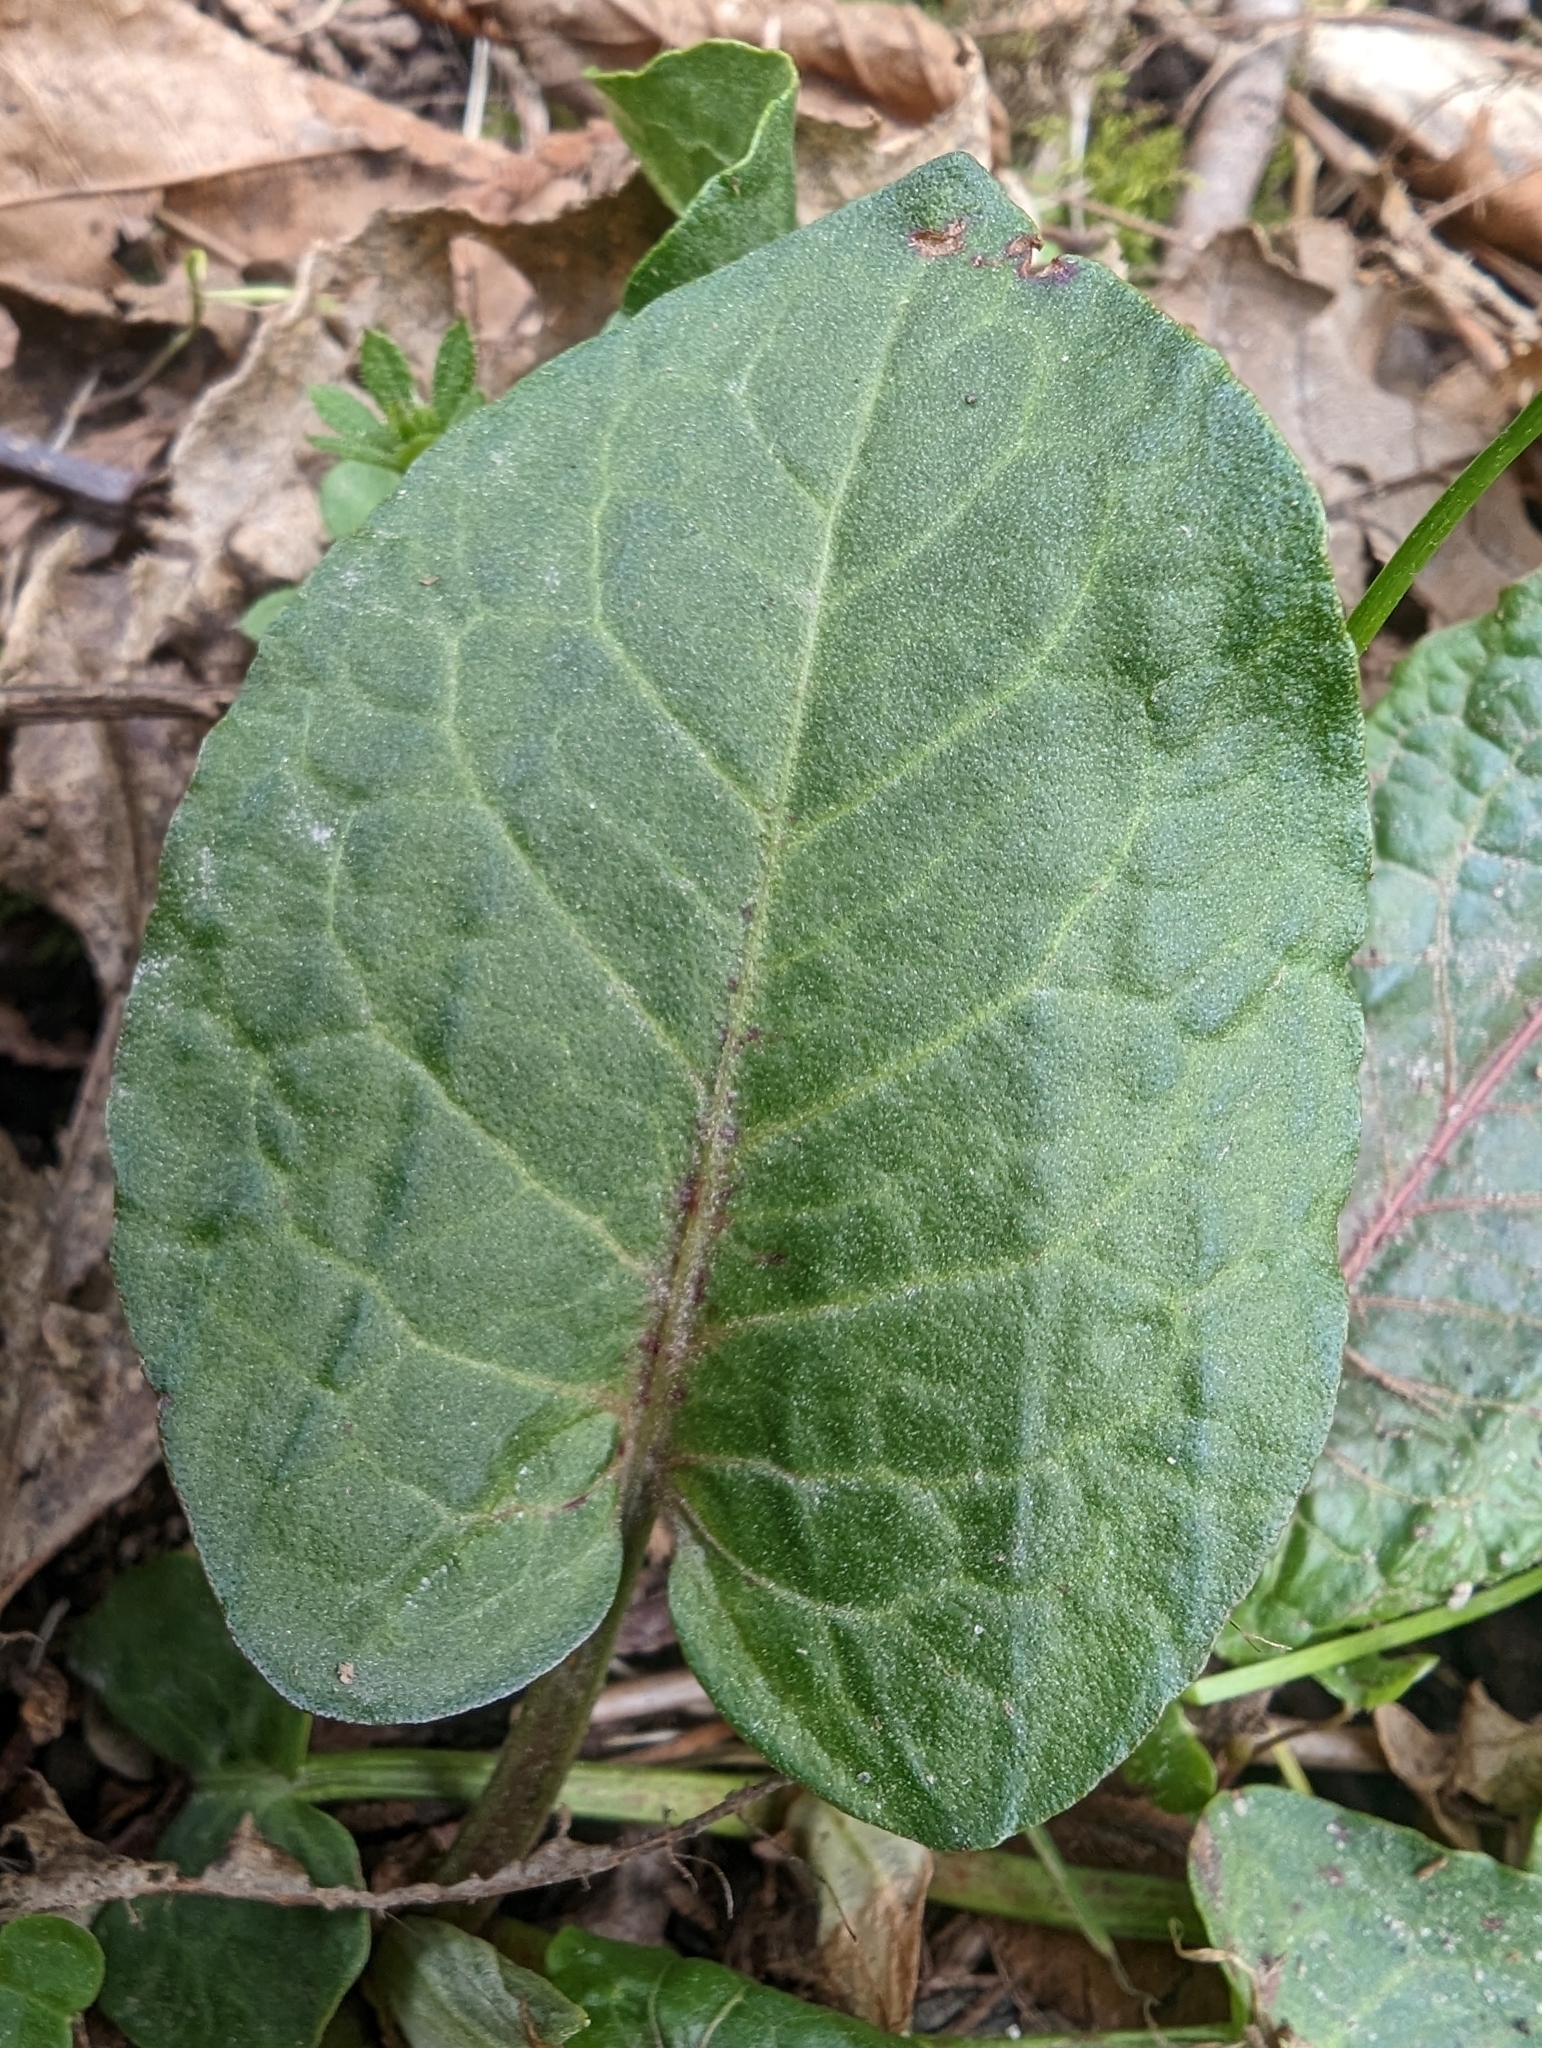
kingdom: Plantae
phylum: Tracheophyta
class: Magnoliopsida
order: Caryophyllales
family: Polygonaceae
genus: Rumex
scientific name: Rumex obtusifolius
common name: Bitter dock
